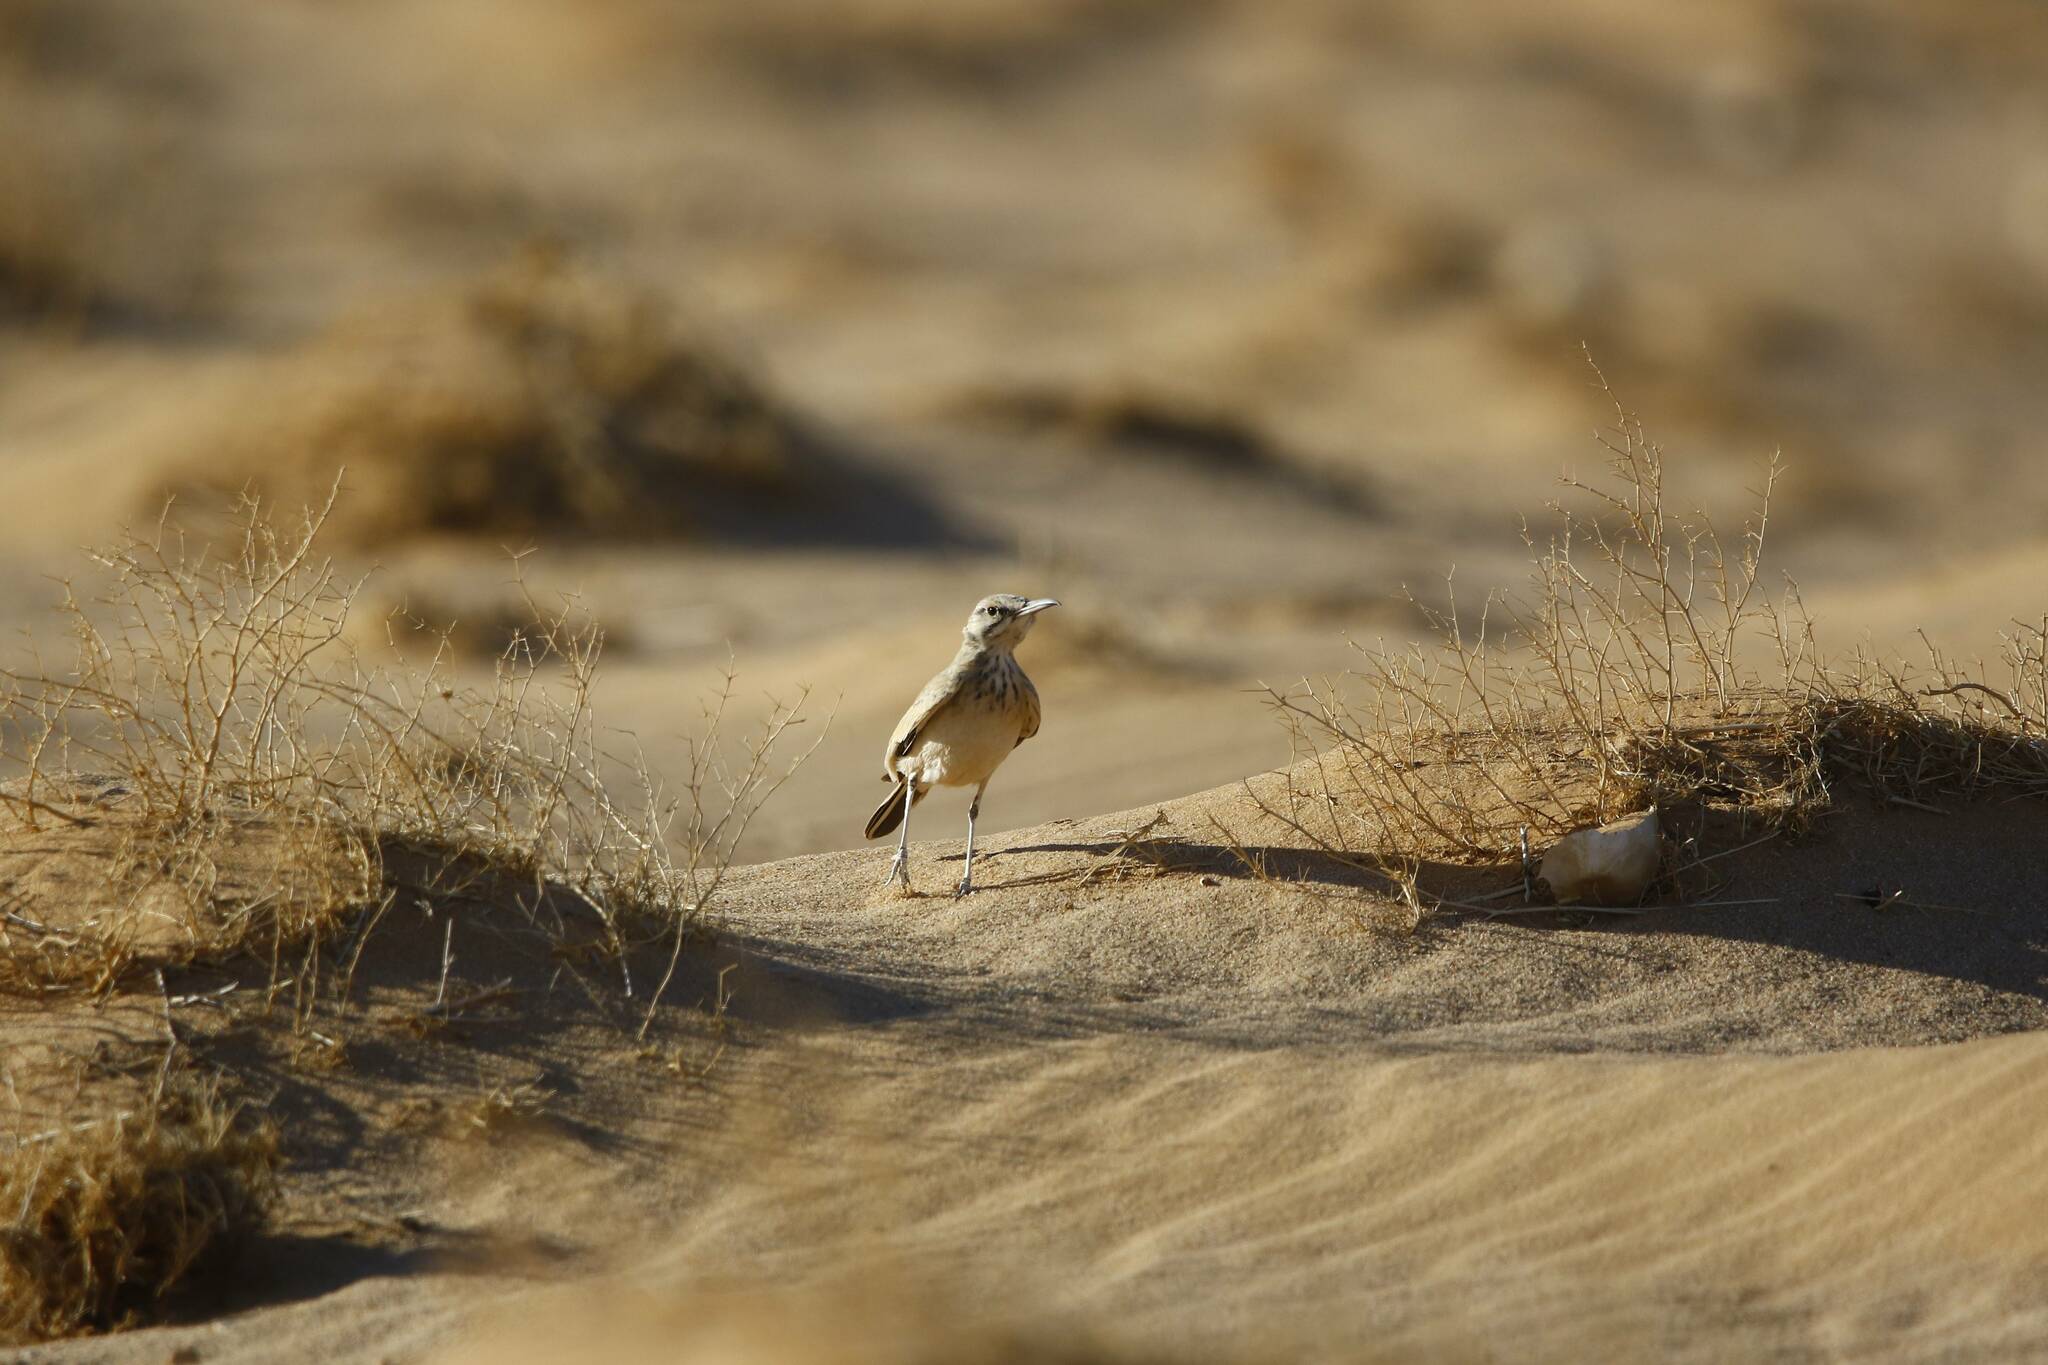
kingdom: Animalia
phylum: Chordata
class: Aves
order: Passeriformes
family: Alaudidae
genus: Alaemon
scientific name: Alaemon alaudipes
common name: Greater hoopoe-lark
